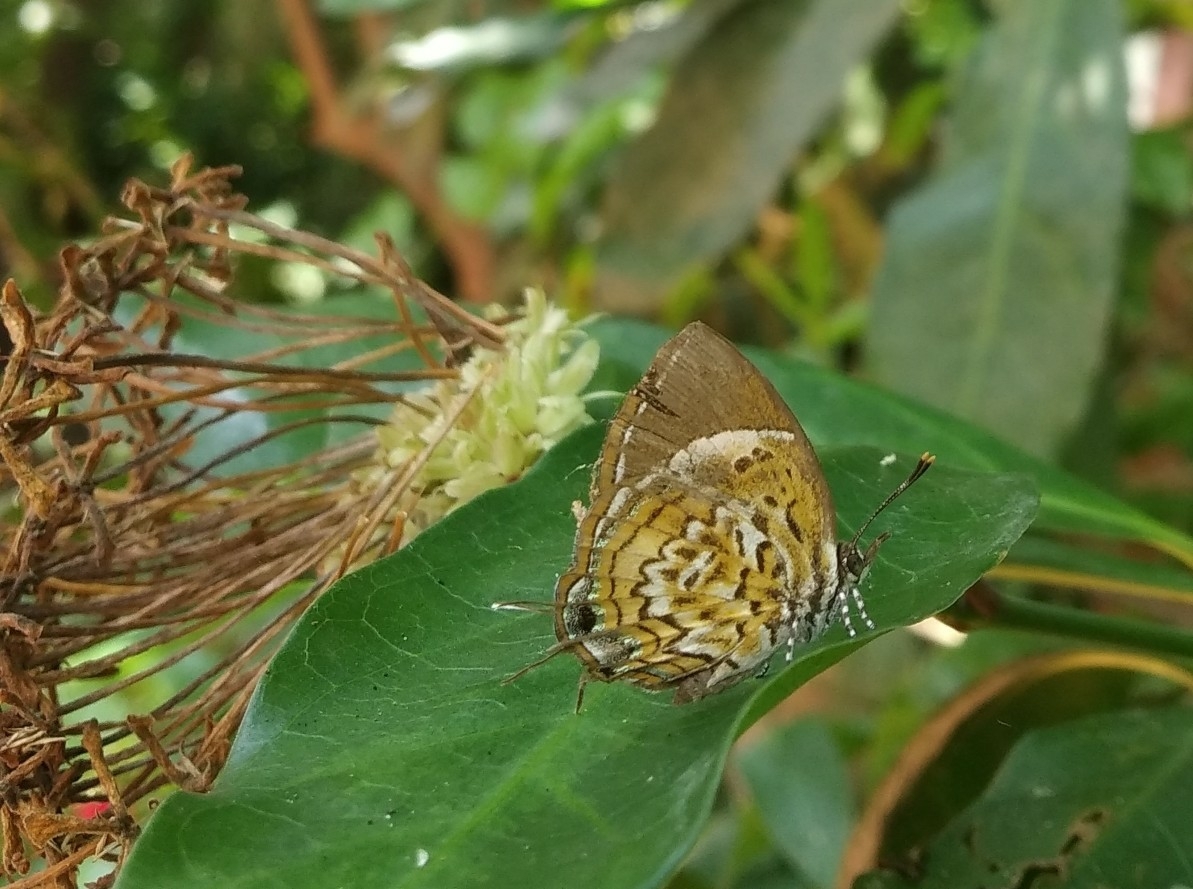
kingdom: Animalia
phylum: Arthropoda
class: Insecta
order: Lepidoptera
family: Lycaenidae
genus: Rathinda
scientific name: Rathinda amor
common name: Monkey puzzle
